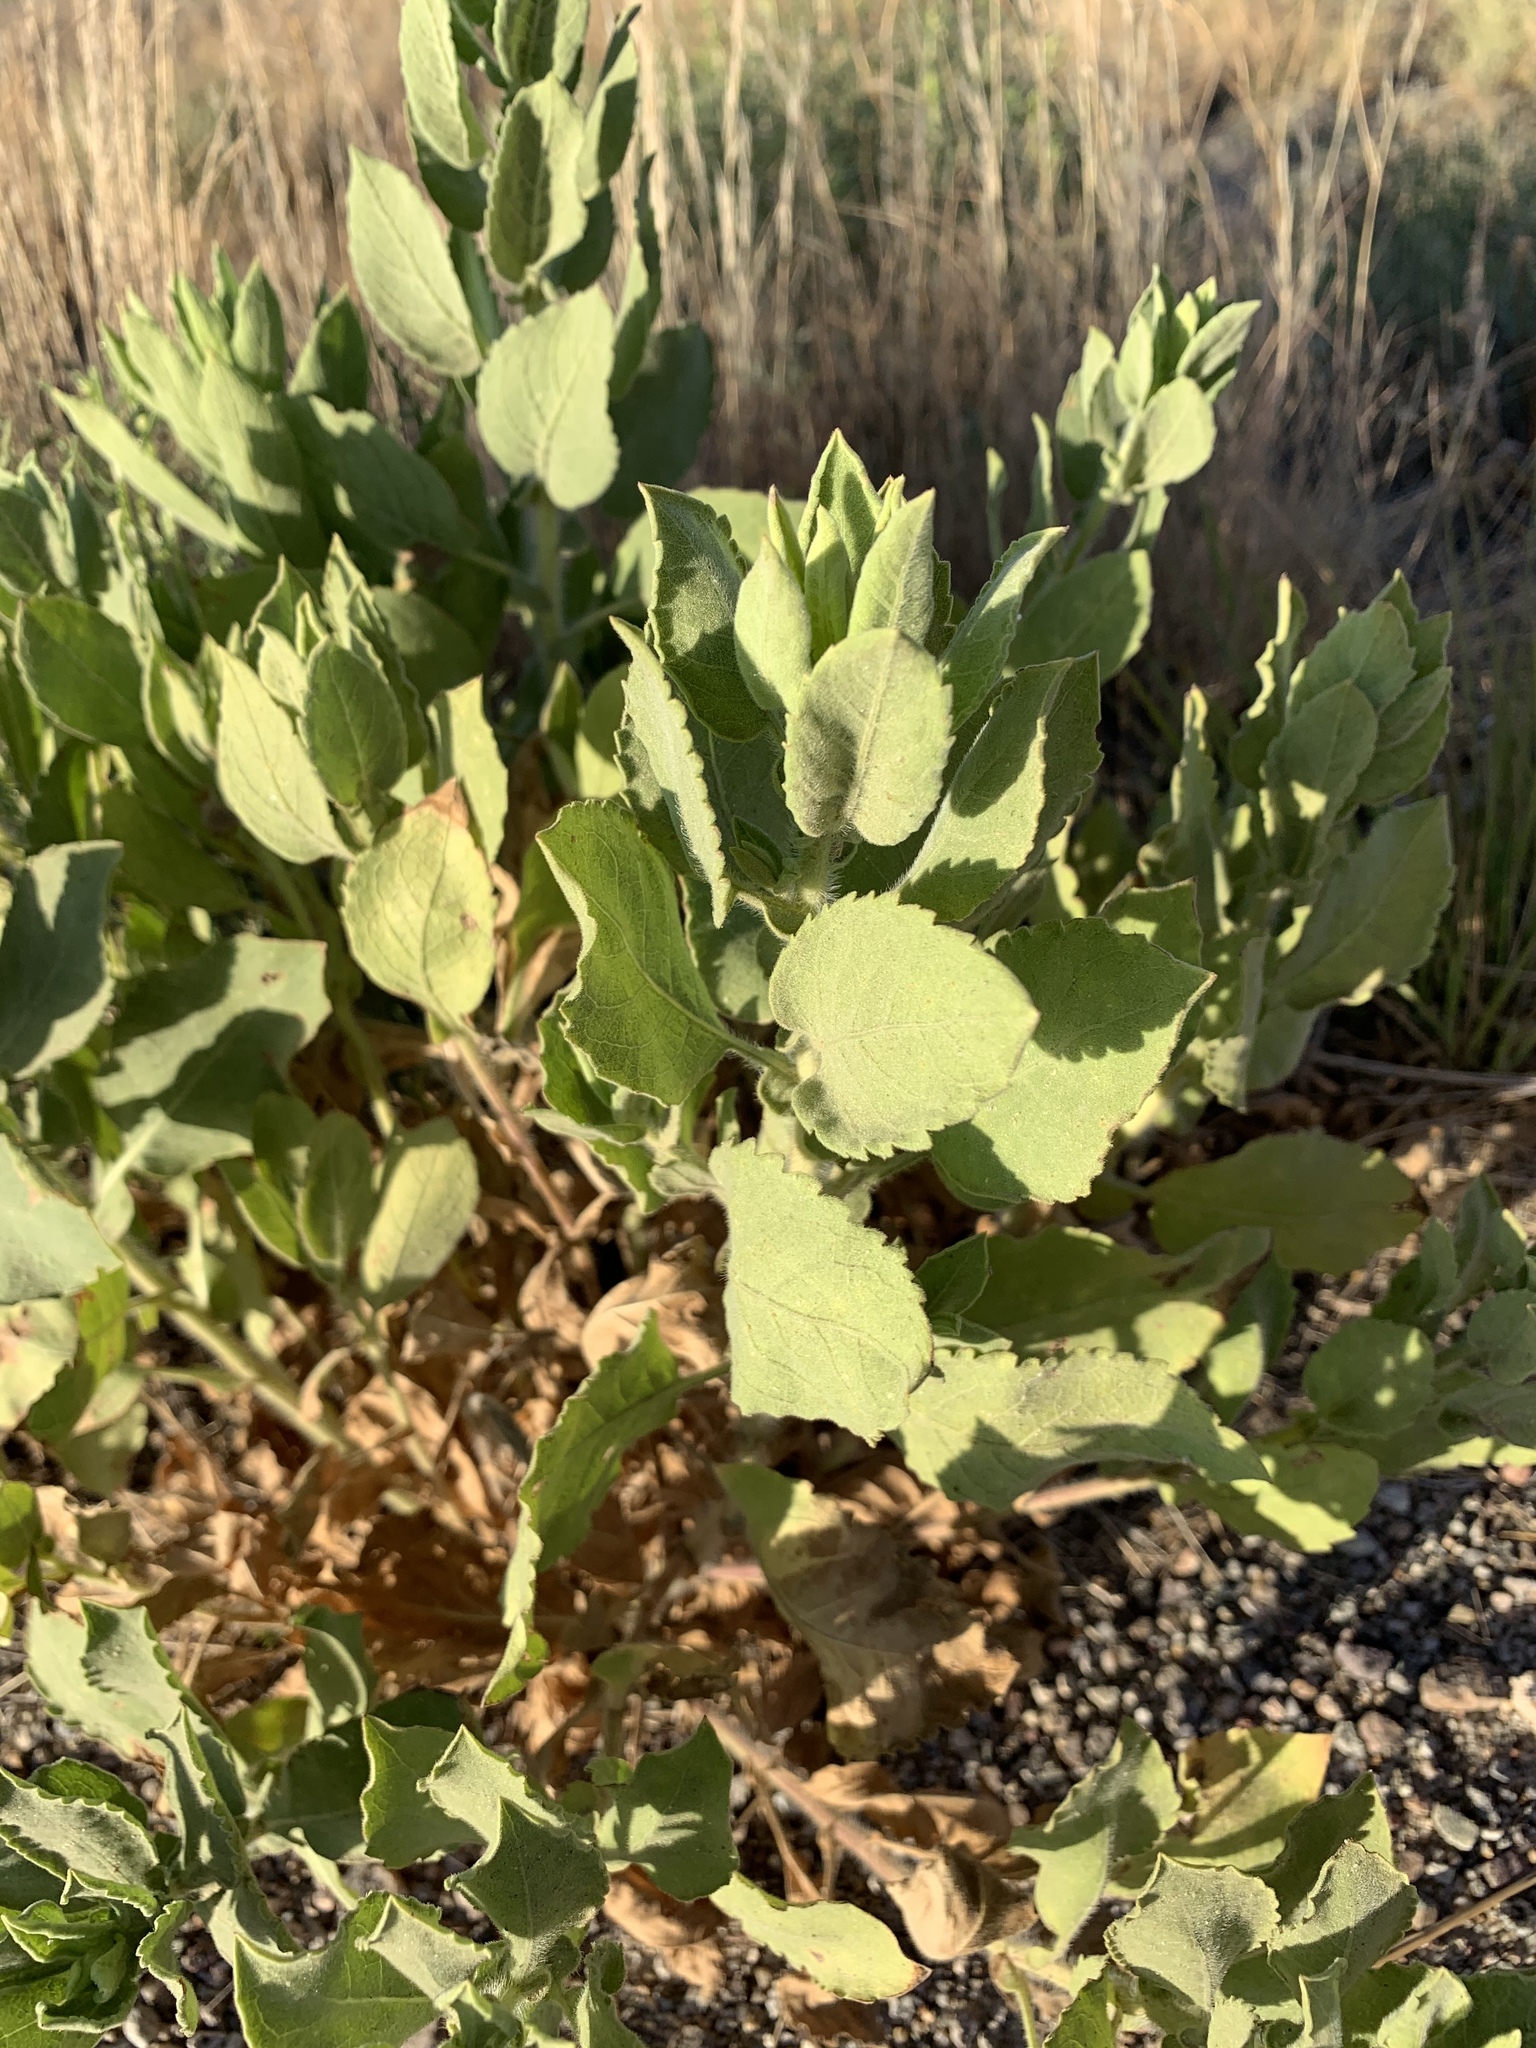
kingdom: Plantae
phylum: Tracheophyta
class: Magnoliopsida
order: Asterales
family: Asteraceae
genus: Heterotheca
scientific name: Heterotheca subaxillaris
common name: Camphorweed
